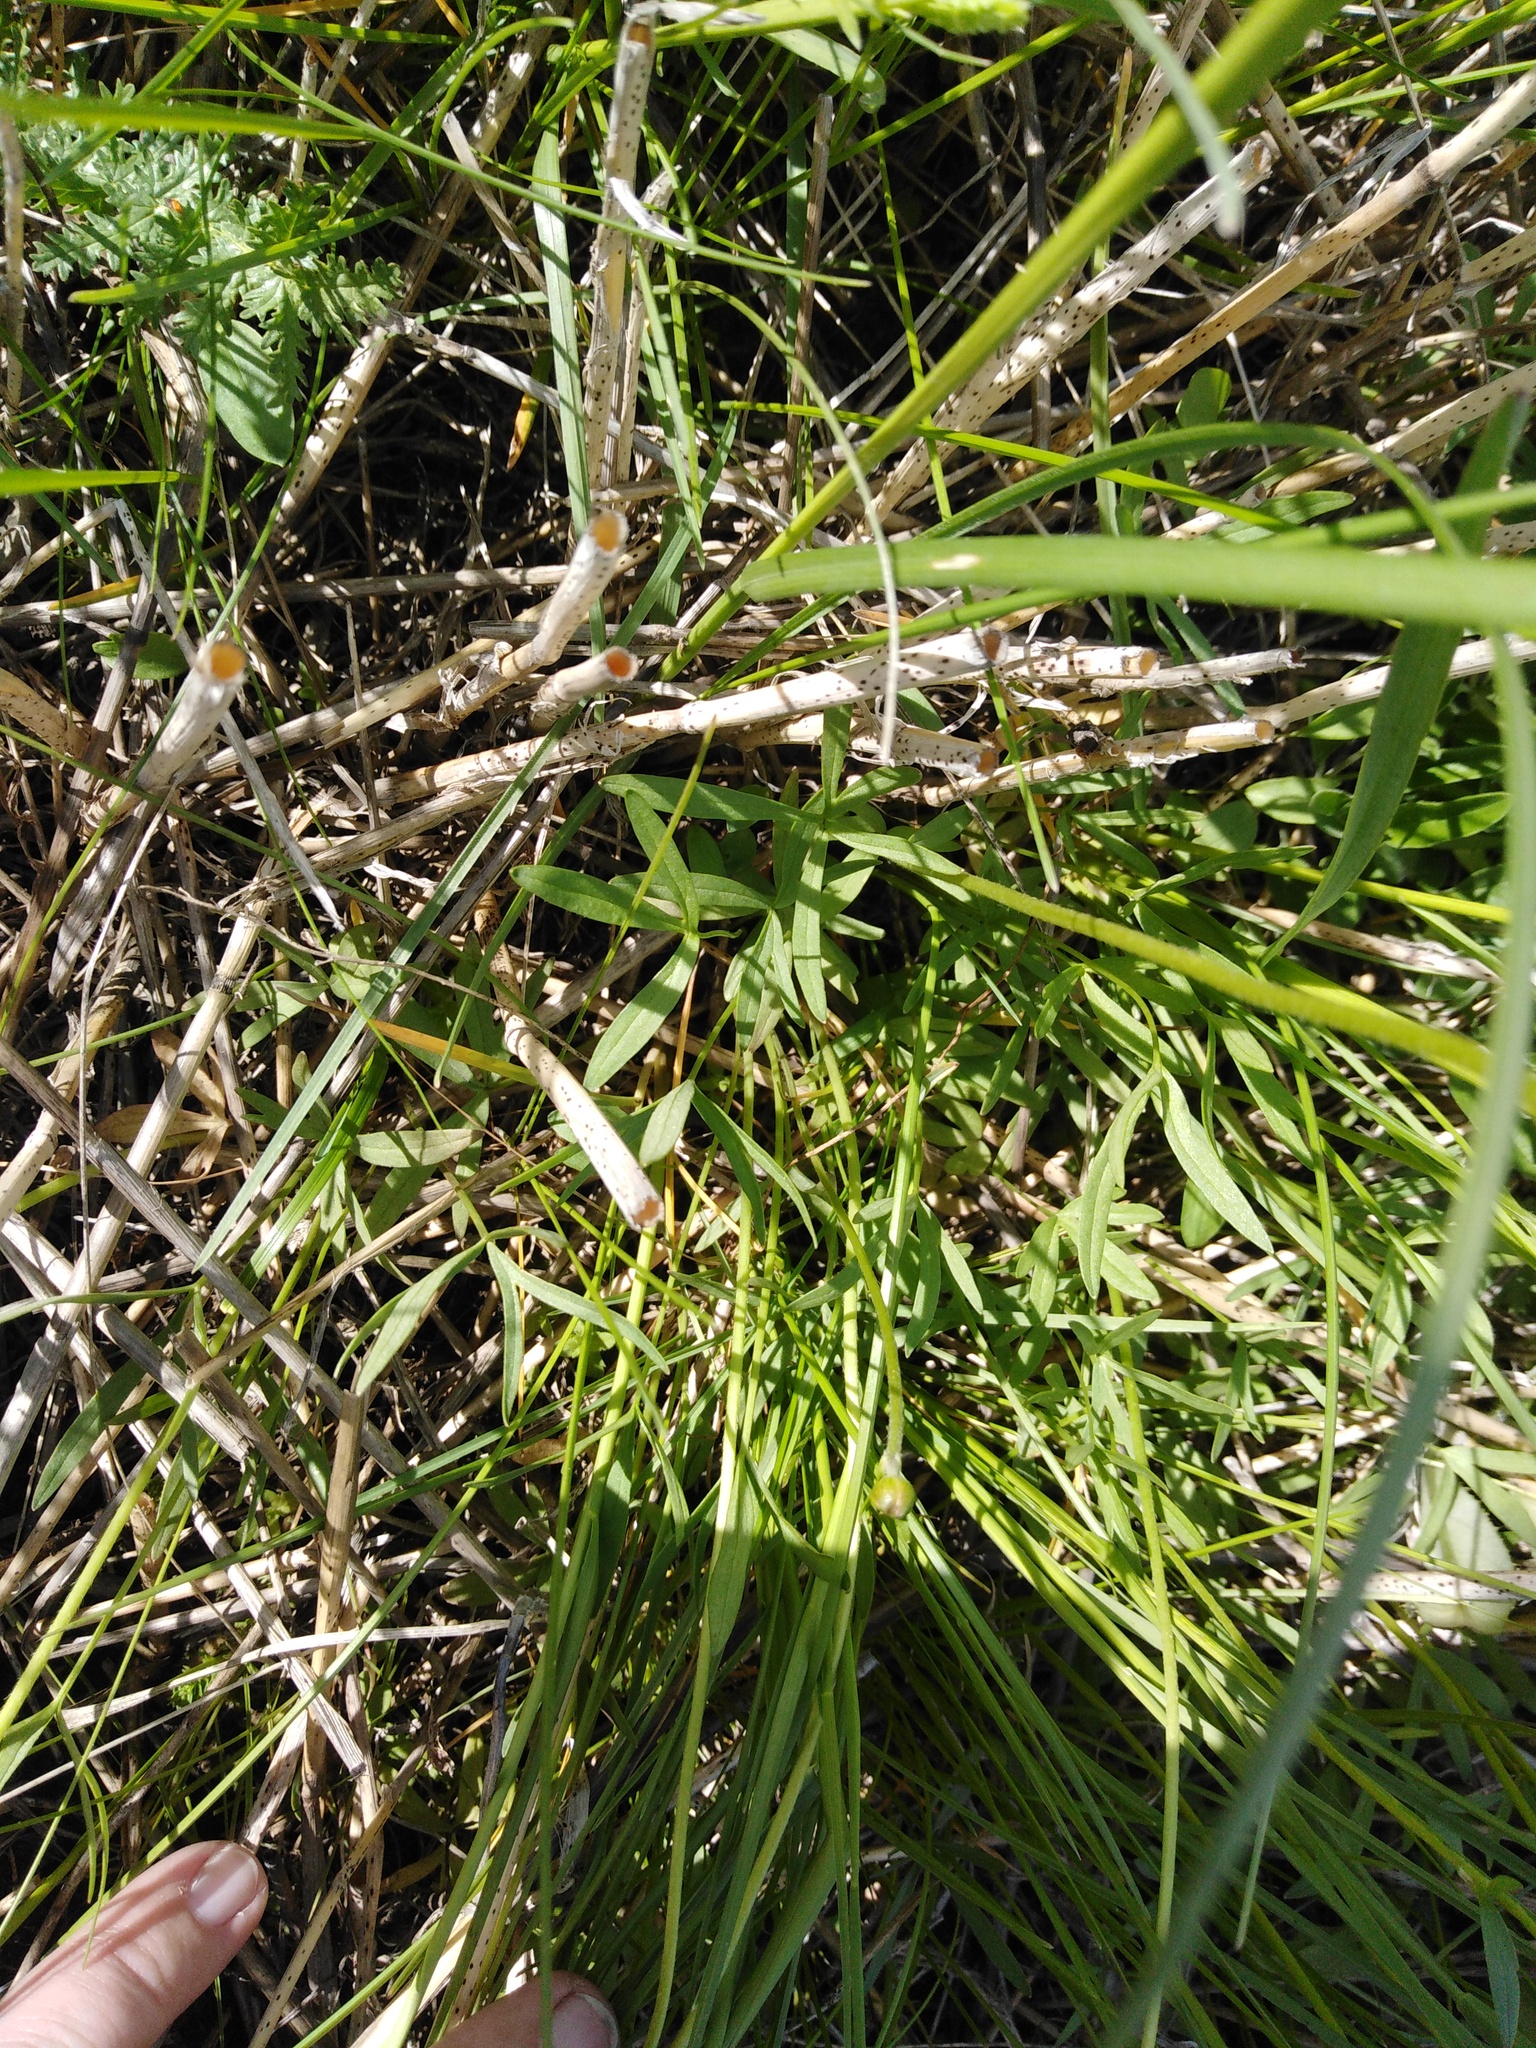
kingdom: Plantae
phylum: Tracheophyta
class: Magnoliopsida
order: Ranunculales
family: Ranunculaceae
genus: Ranunculus
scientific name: Ranunculus pedatus
